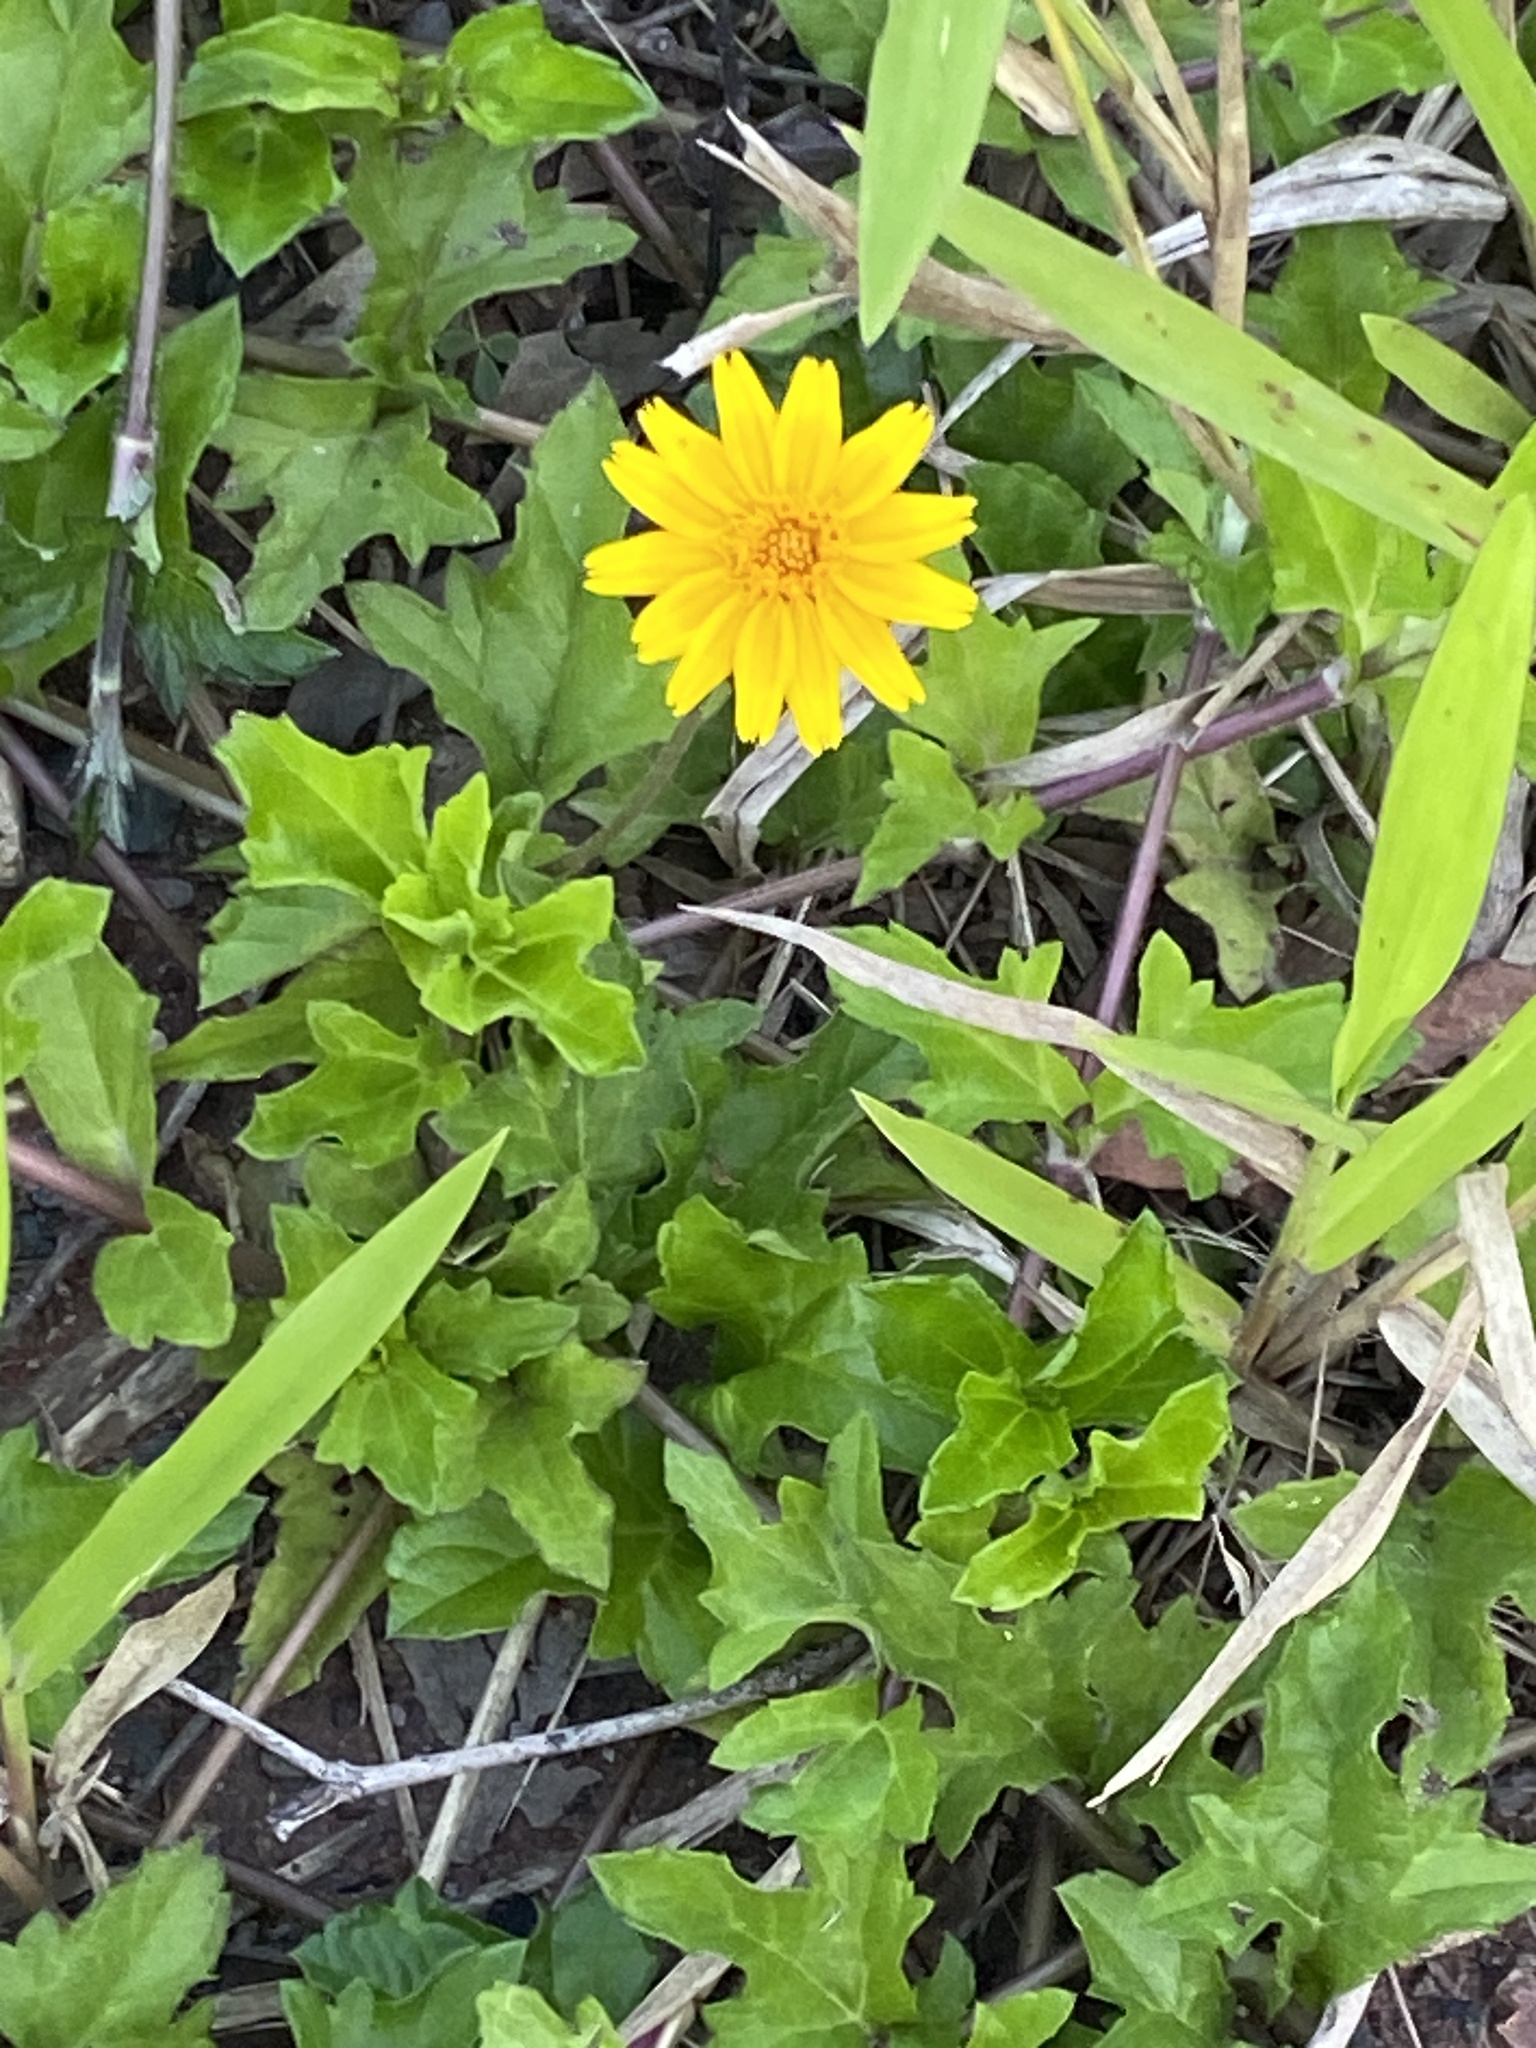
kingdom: Plantae
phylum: Tracheophyta
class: Magnoliopsida
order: Asterales
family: Asteraceae
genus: Sphagneticola
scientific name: Sphagneticola trilobata
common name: Bay biscayne creeping-oxeye
